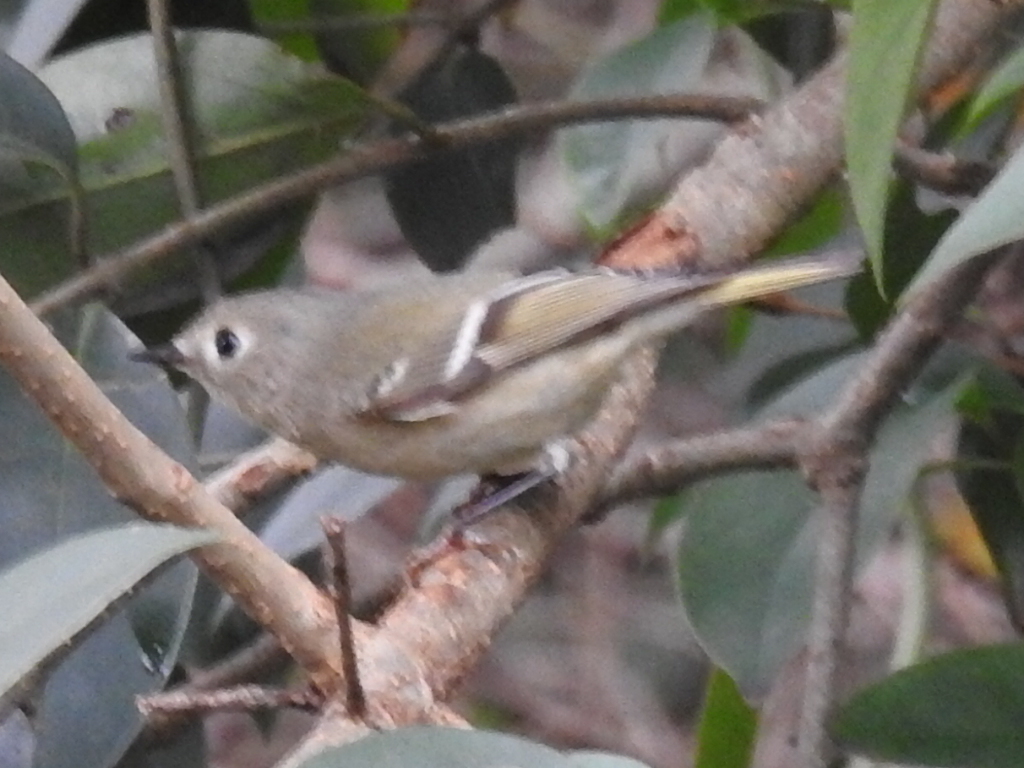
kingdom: Animalia
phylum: Chordata
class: Aves
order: Passeriformes
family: Regulidae
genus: Regulus
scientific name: Regulus calendula
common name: Ruby-crowned kinglet
